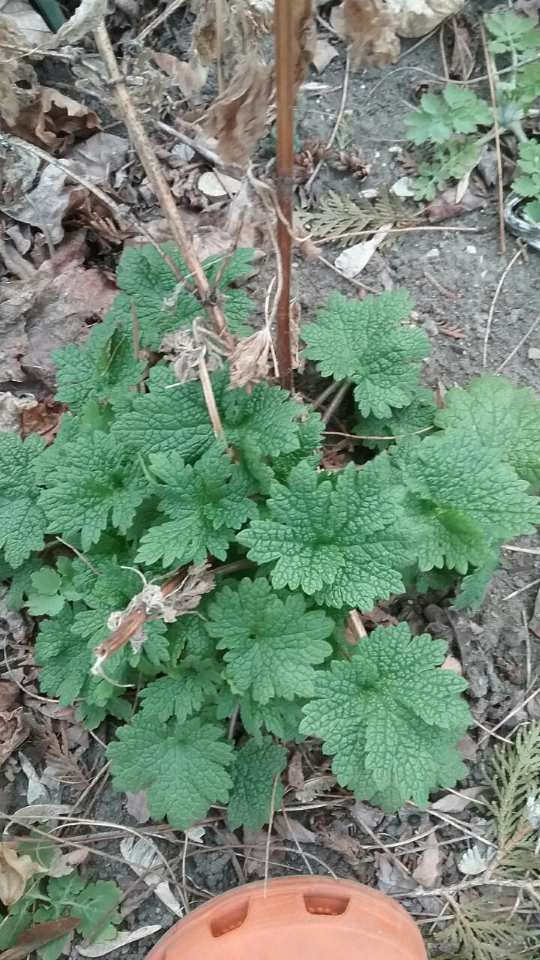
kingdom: Plantae
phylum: Tracheophyta
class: Magnoliopsida
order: Lamiales
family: Lamiaceae
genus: Leonurus
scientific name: Leonurus cardiaca
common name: Motherwort
